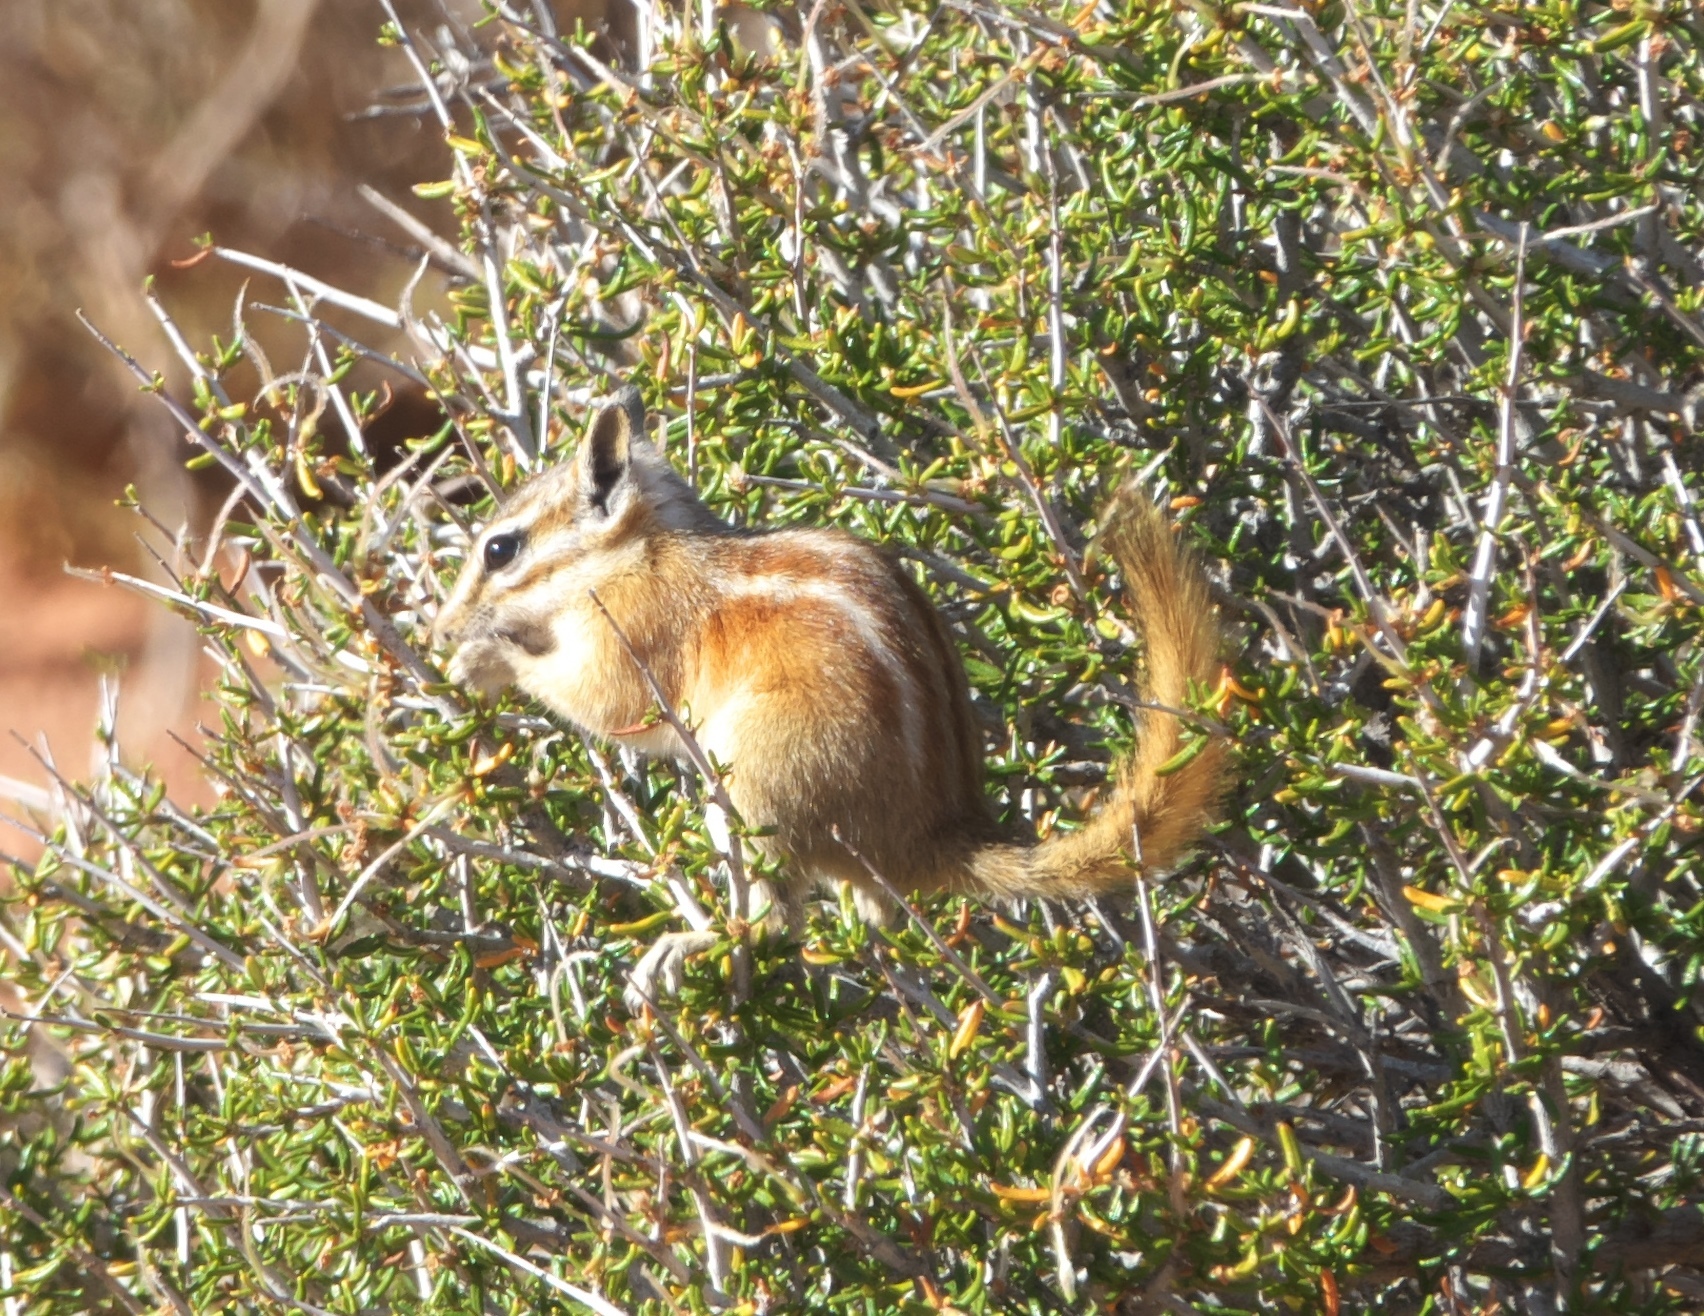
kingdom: Animalia
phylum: Chordata
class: Mammalia
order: Rodentia
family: Sciuridae
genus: Tamias
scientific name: Tamias cinereicollis
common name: Gray-collared chipmunk
